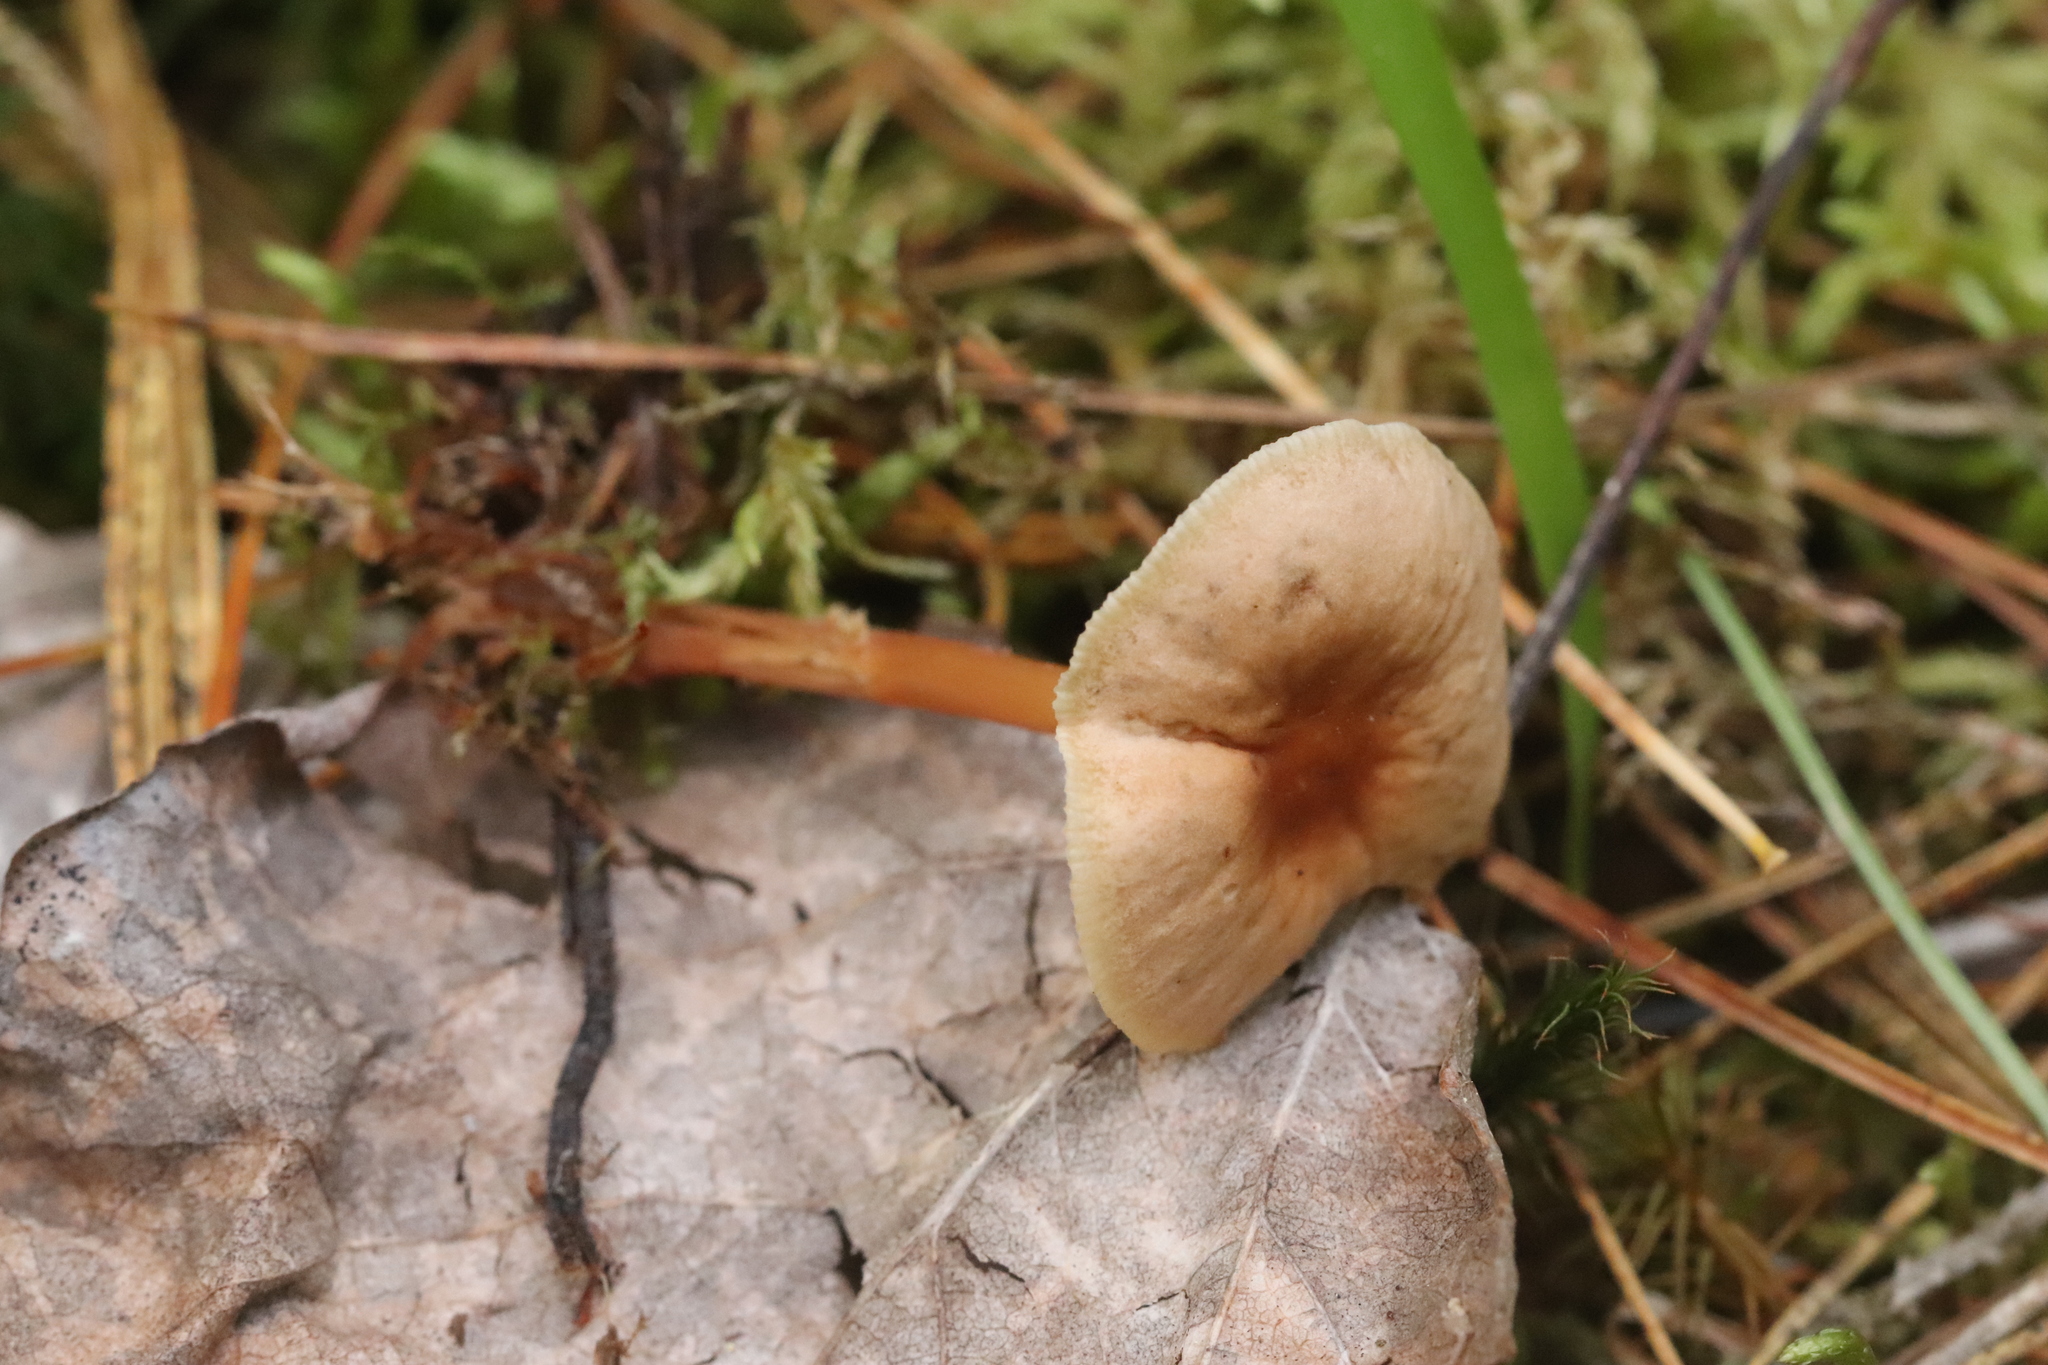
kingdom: Fungi
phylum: Basidiomycota
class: Agaricomycetes
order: Agaricales
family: Omphalotaceae
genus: Gymnopus
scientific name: Gymnopus dryophilus
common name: Penny top
